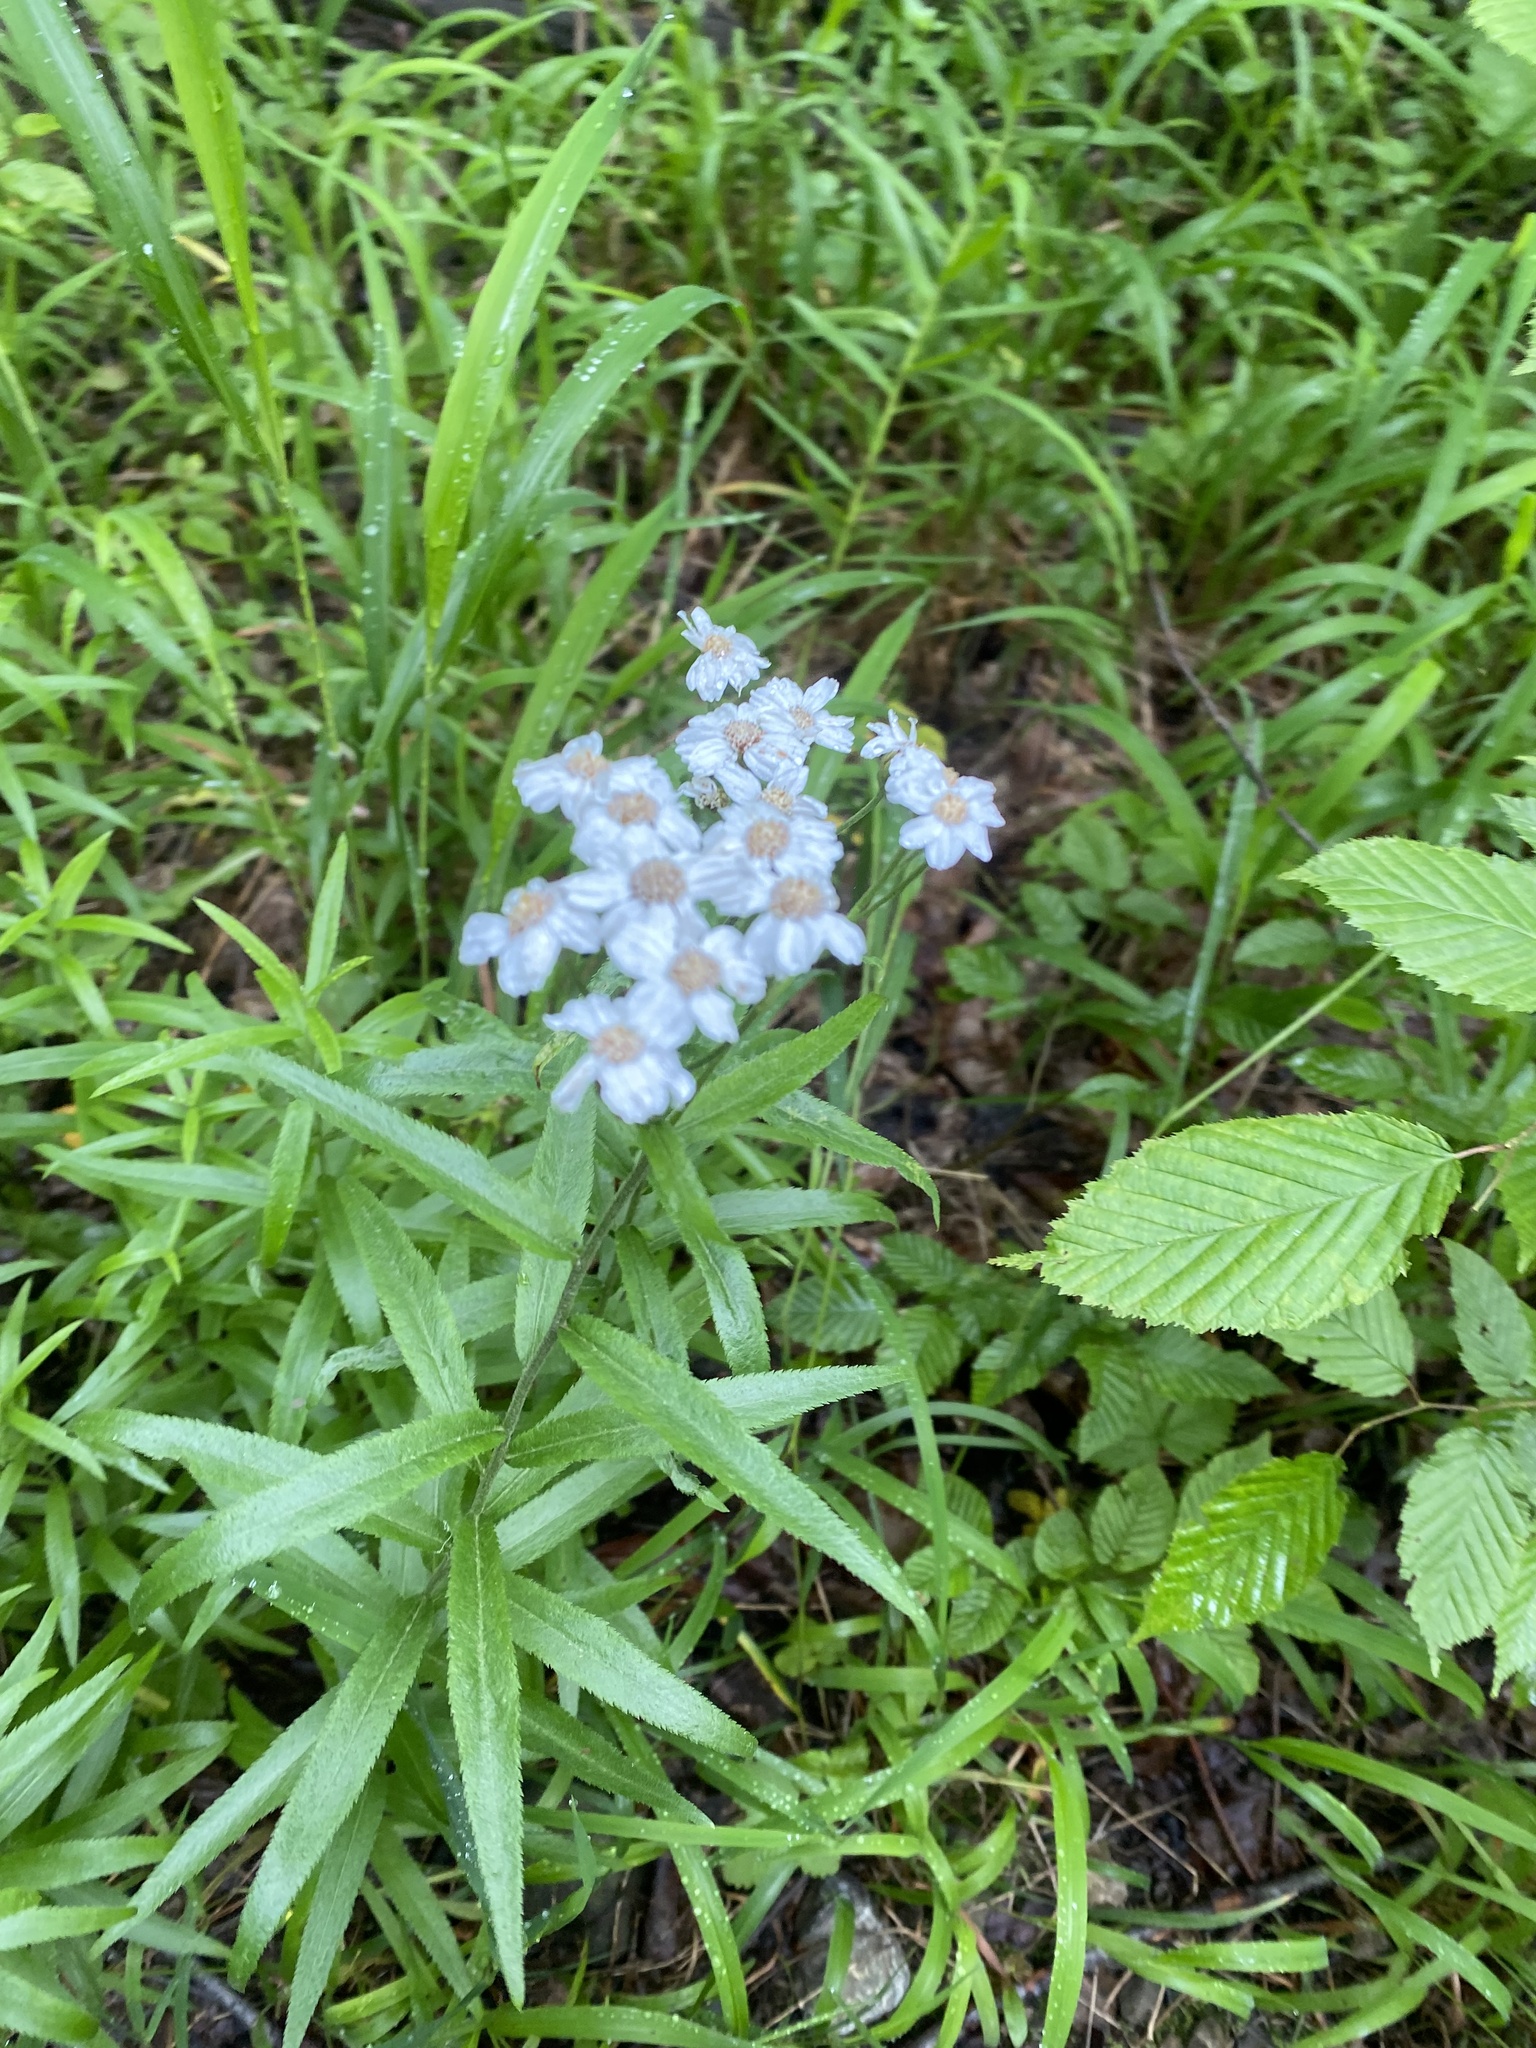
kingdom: Plantae
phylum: Tracheophyta
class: Magnoliopsida
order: Asterales
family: Asteraceae
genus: Achillea
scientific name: Achillea biserrata
